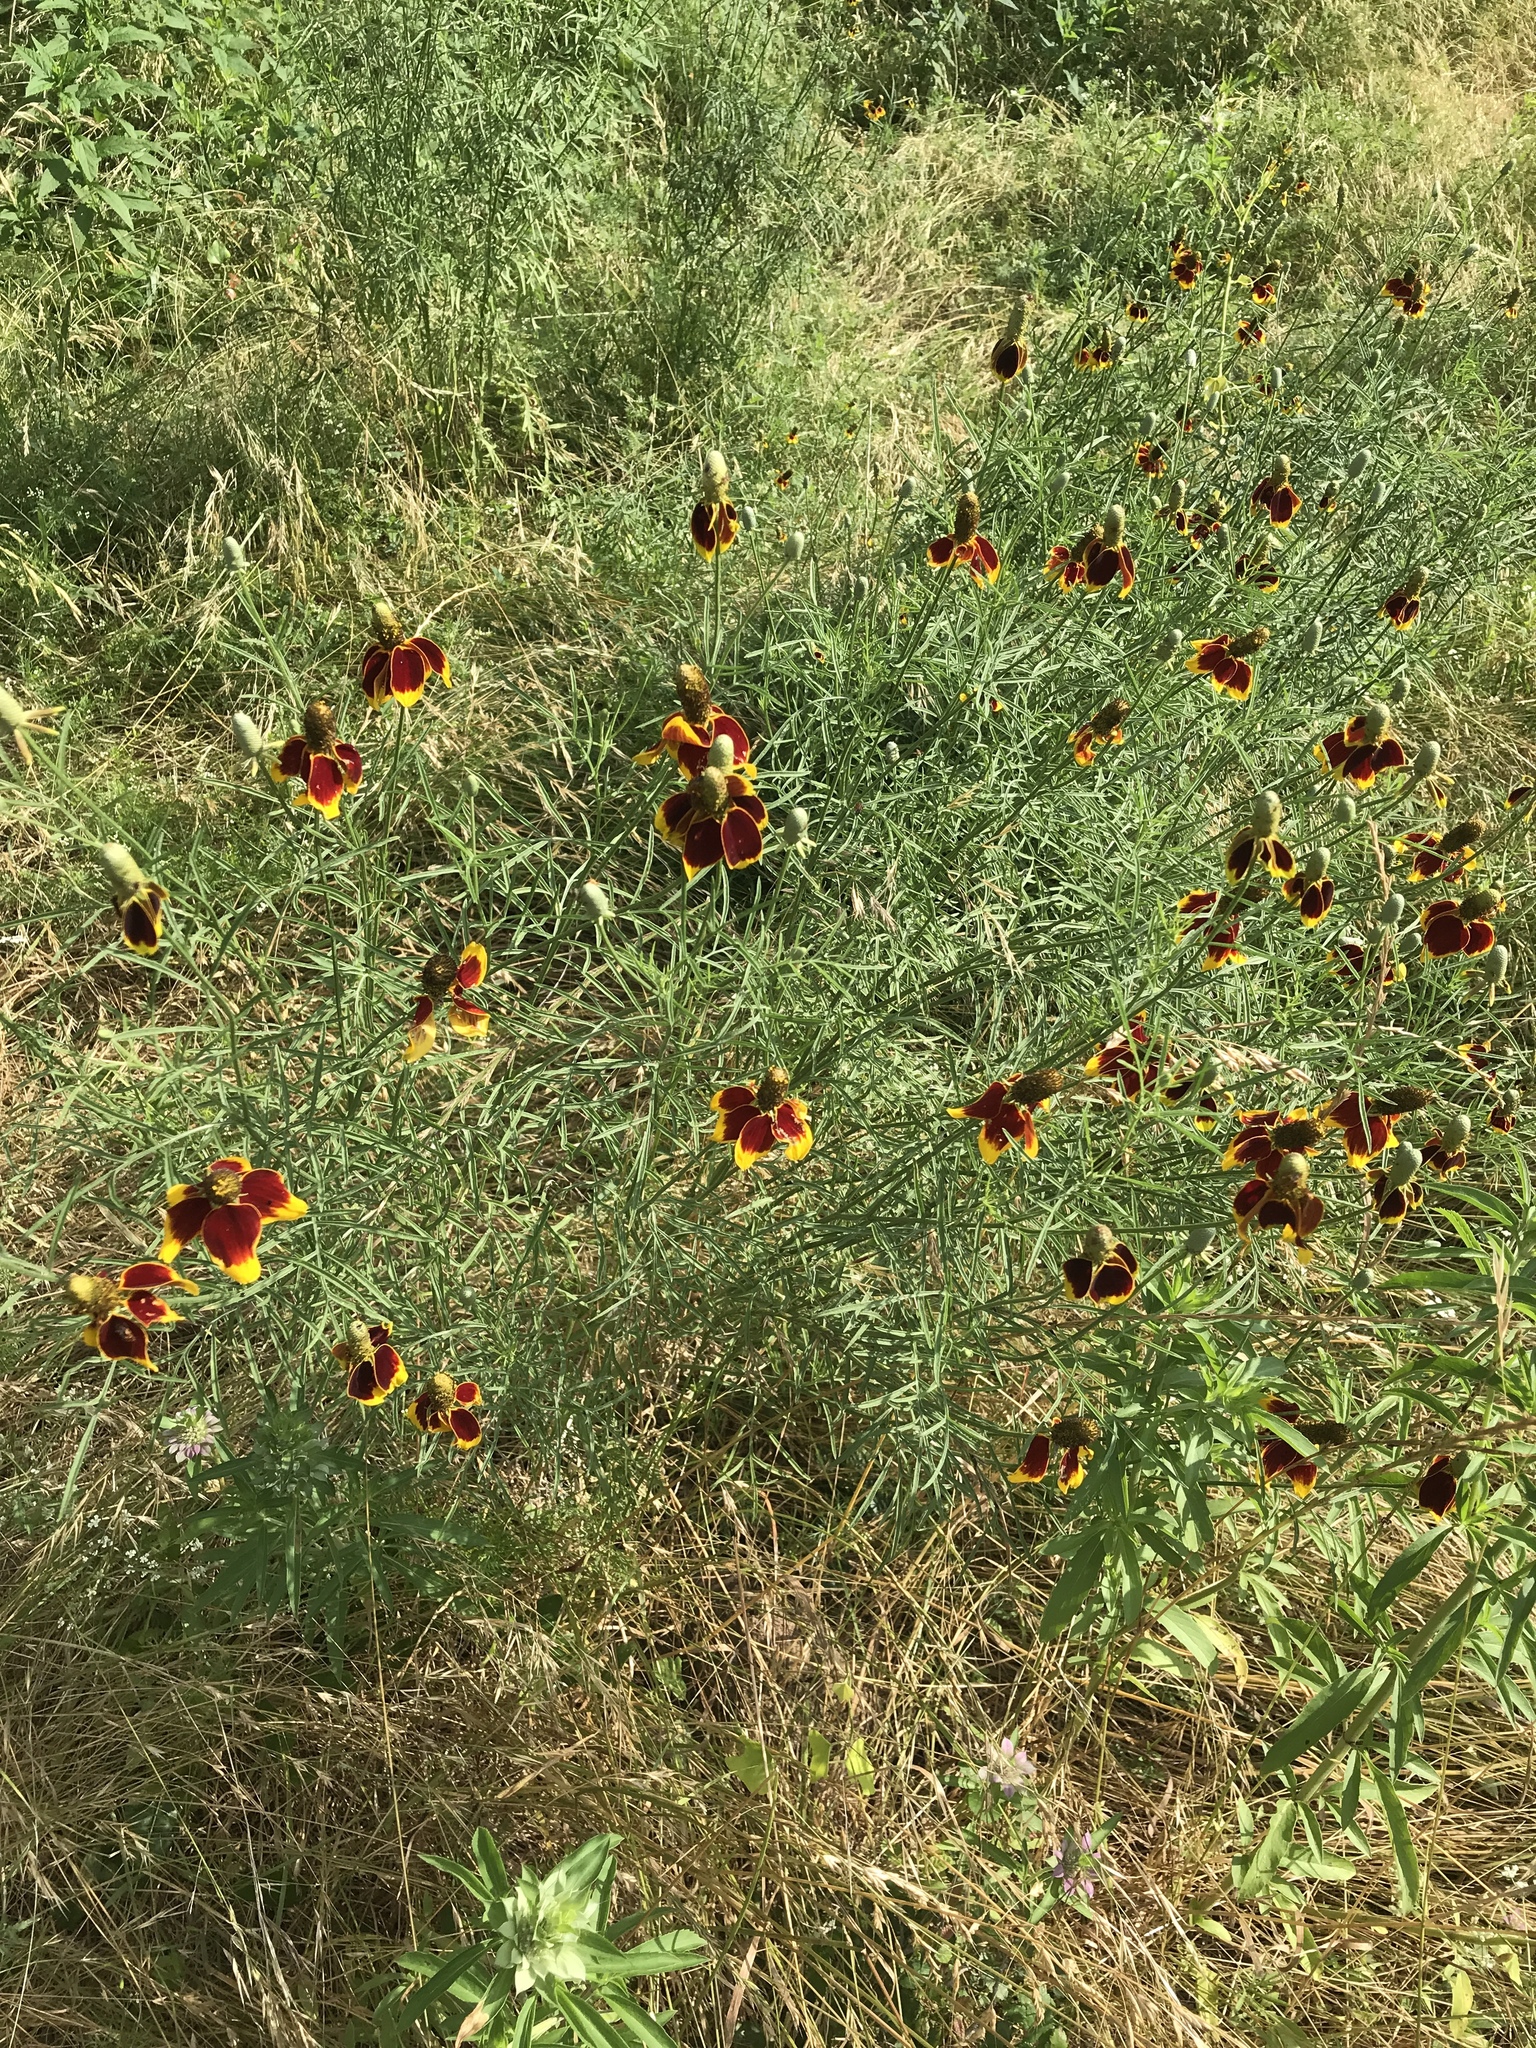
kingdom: Plantae
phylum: Tracheophyta
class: Magnoliopsida
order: Asterales
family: Asteraceae
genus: Ratibida
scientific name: Ratibida columnifera
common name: Prairie coneflower
